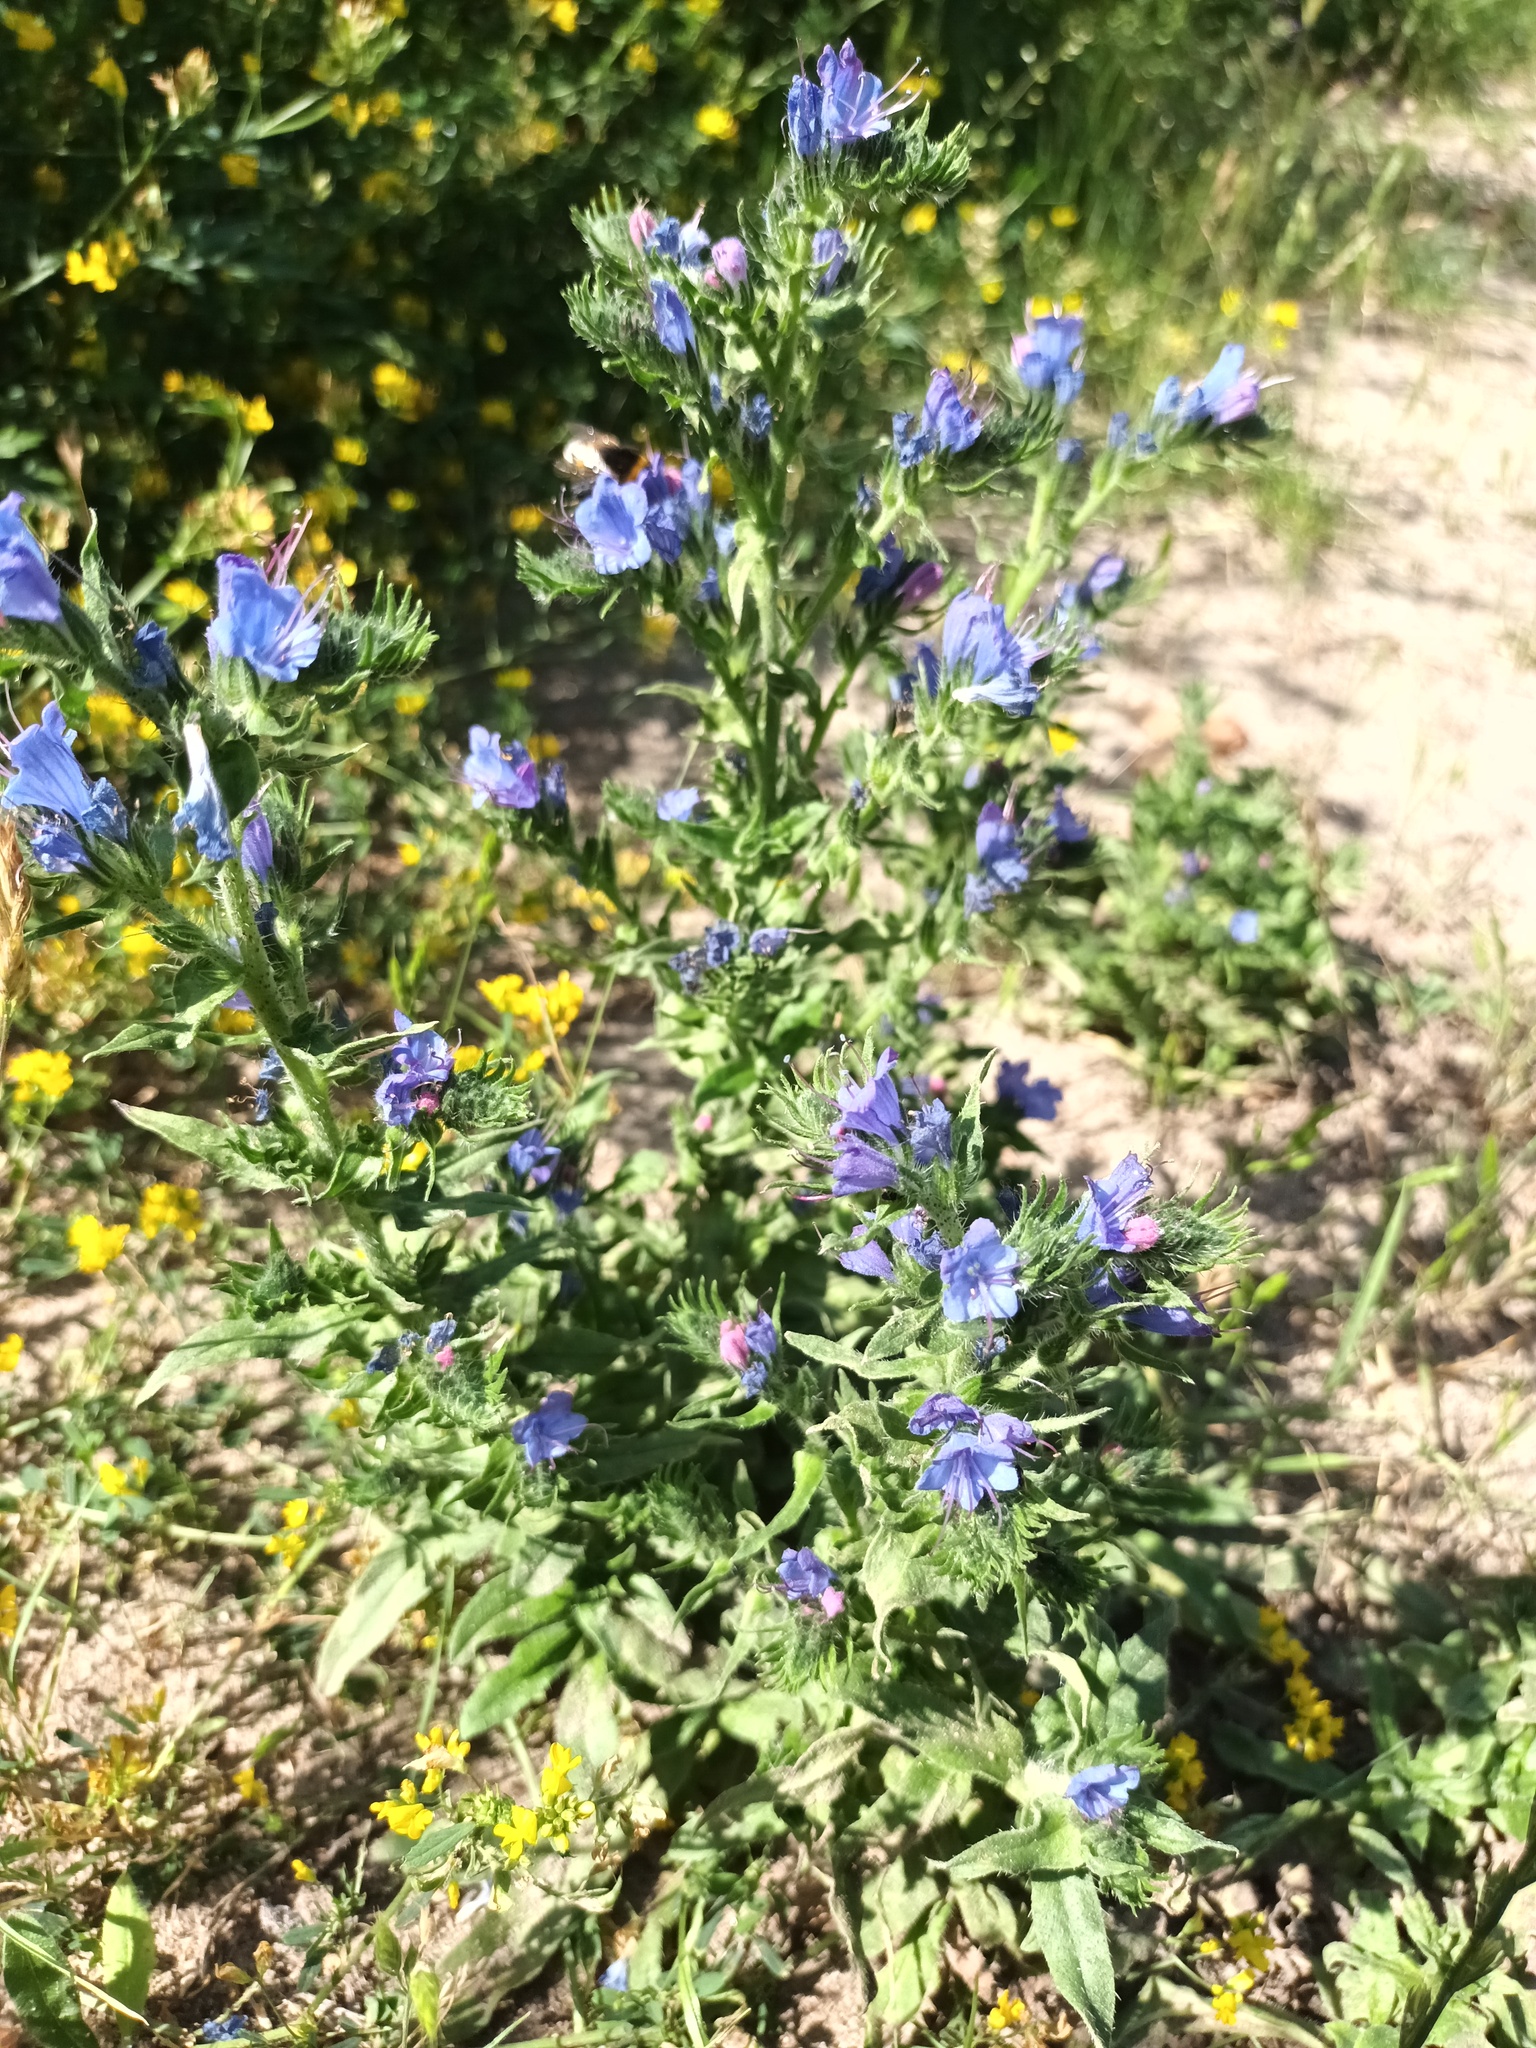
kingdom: Plantae
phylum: Tracheophyta
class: Magnoliopsida
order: Boraginales
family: Boraginaceae
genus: Echium
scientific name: Echium vulgare
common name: Common viper's bugloss
